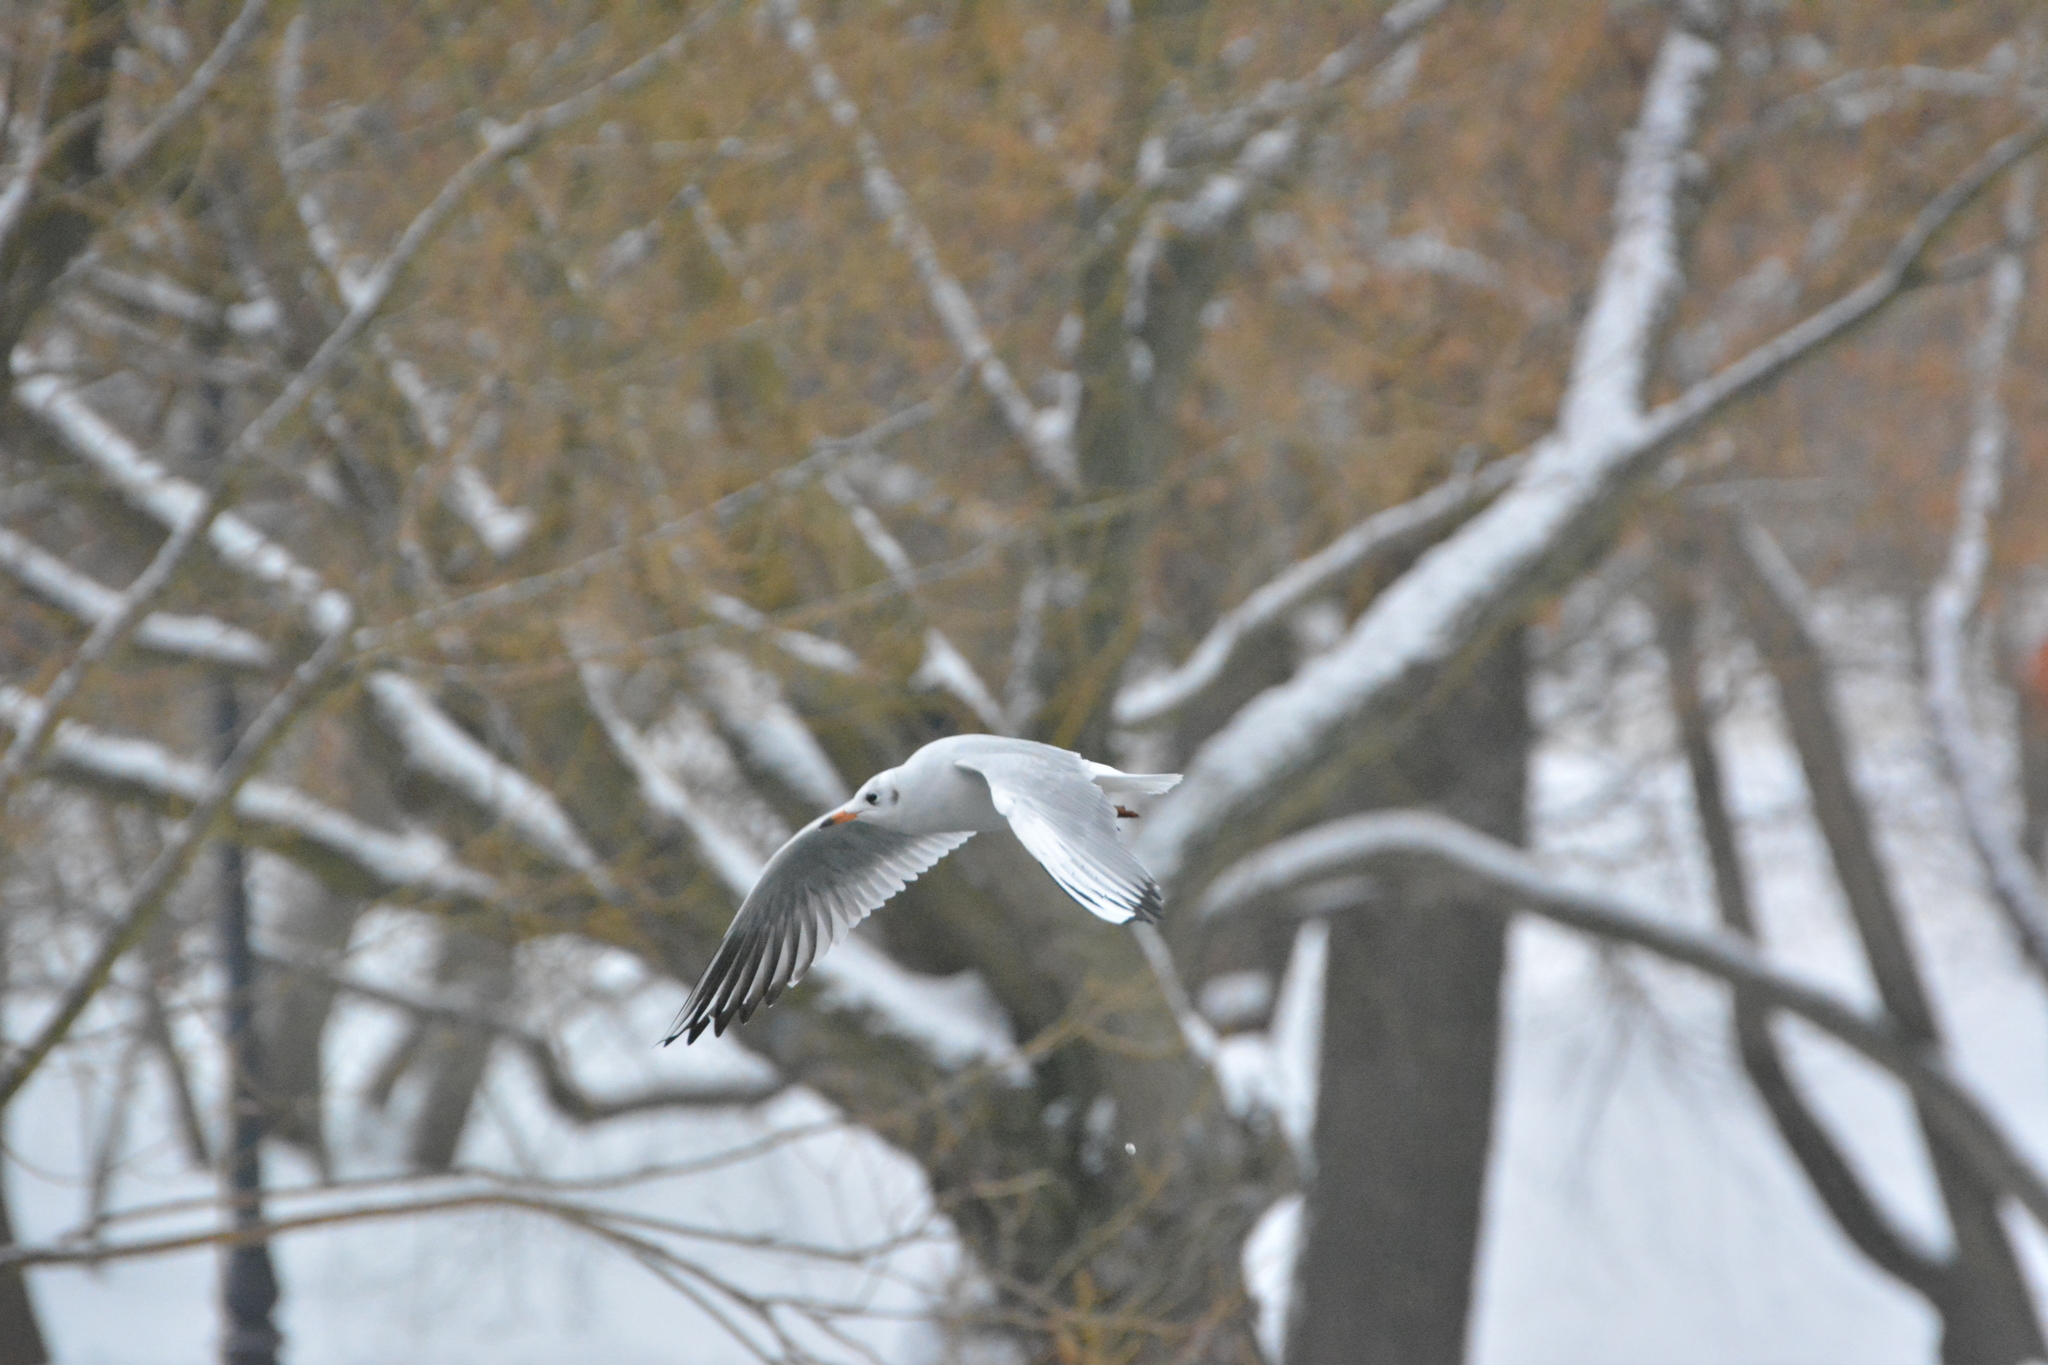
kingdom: Animalia
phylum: Chordata
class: Aves
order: Charadriiformes
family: Laridae
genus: Chroicocephalus
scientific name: Chroicocephalus ridibundus
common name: Black-headed gull
